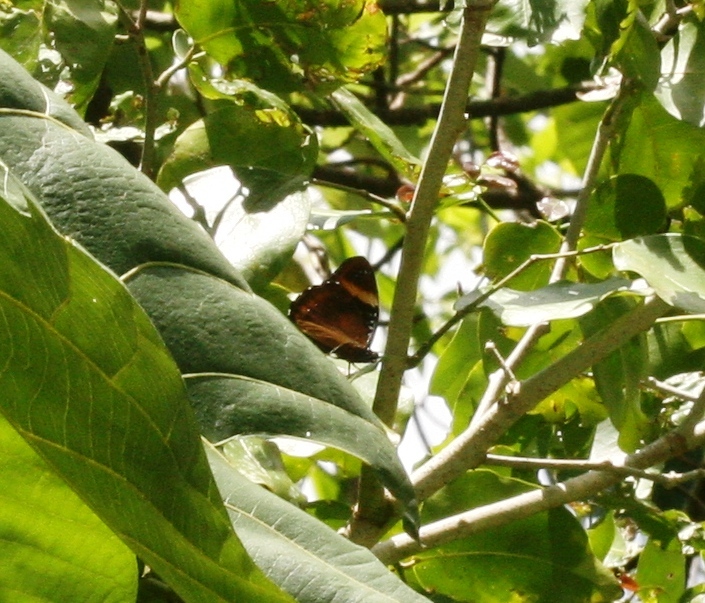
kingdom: Animalia
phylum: Arthropoda
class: Insecta
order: Lepidoptera
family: Nymphalidae
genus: Hypolimnas
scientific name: Hypolimnas octocula
